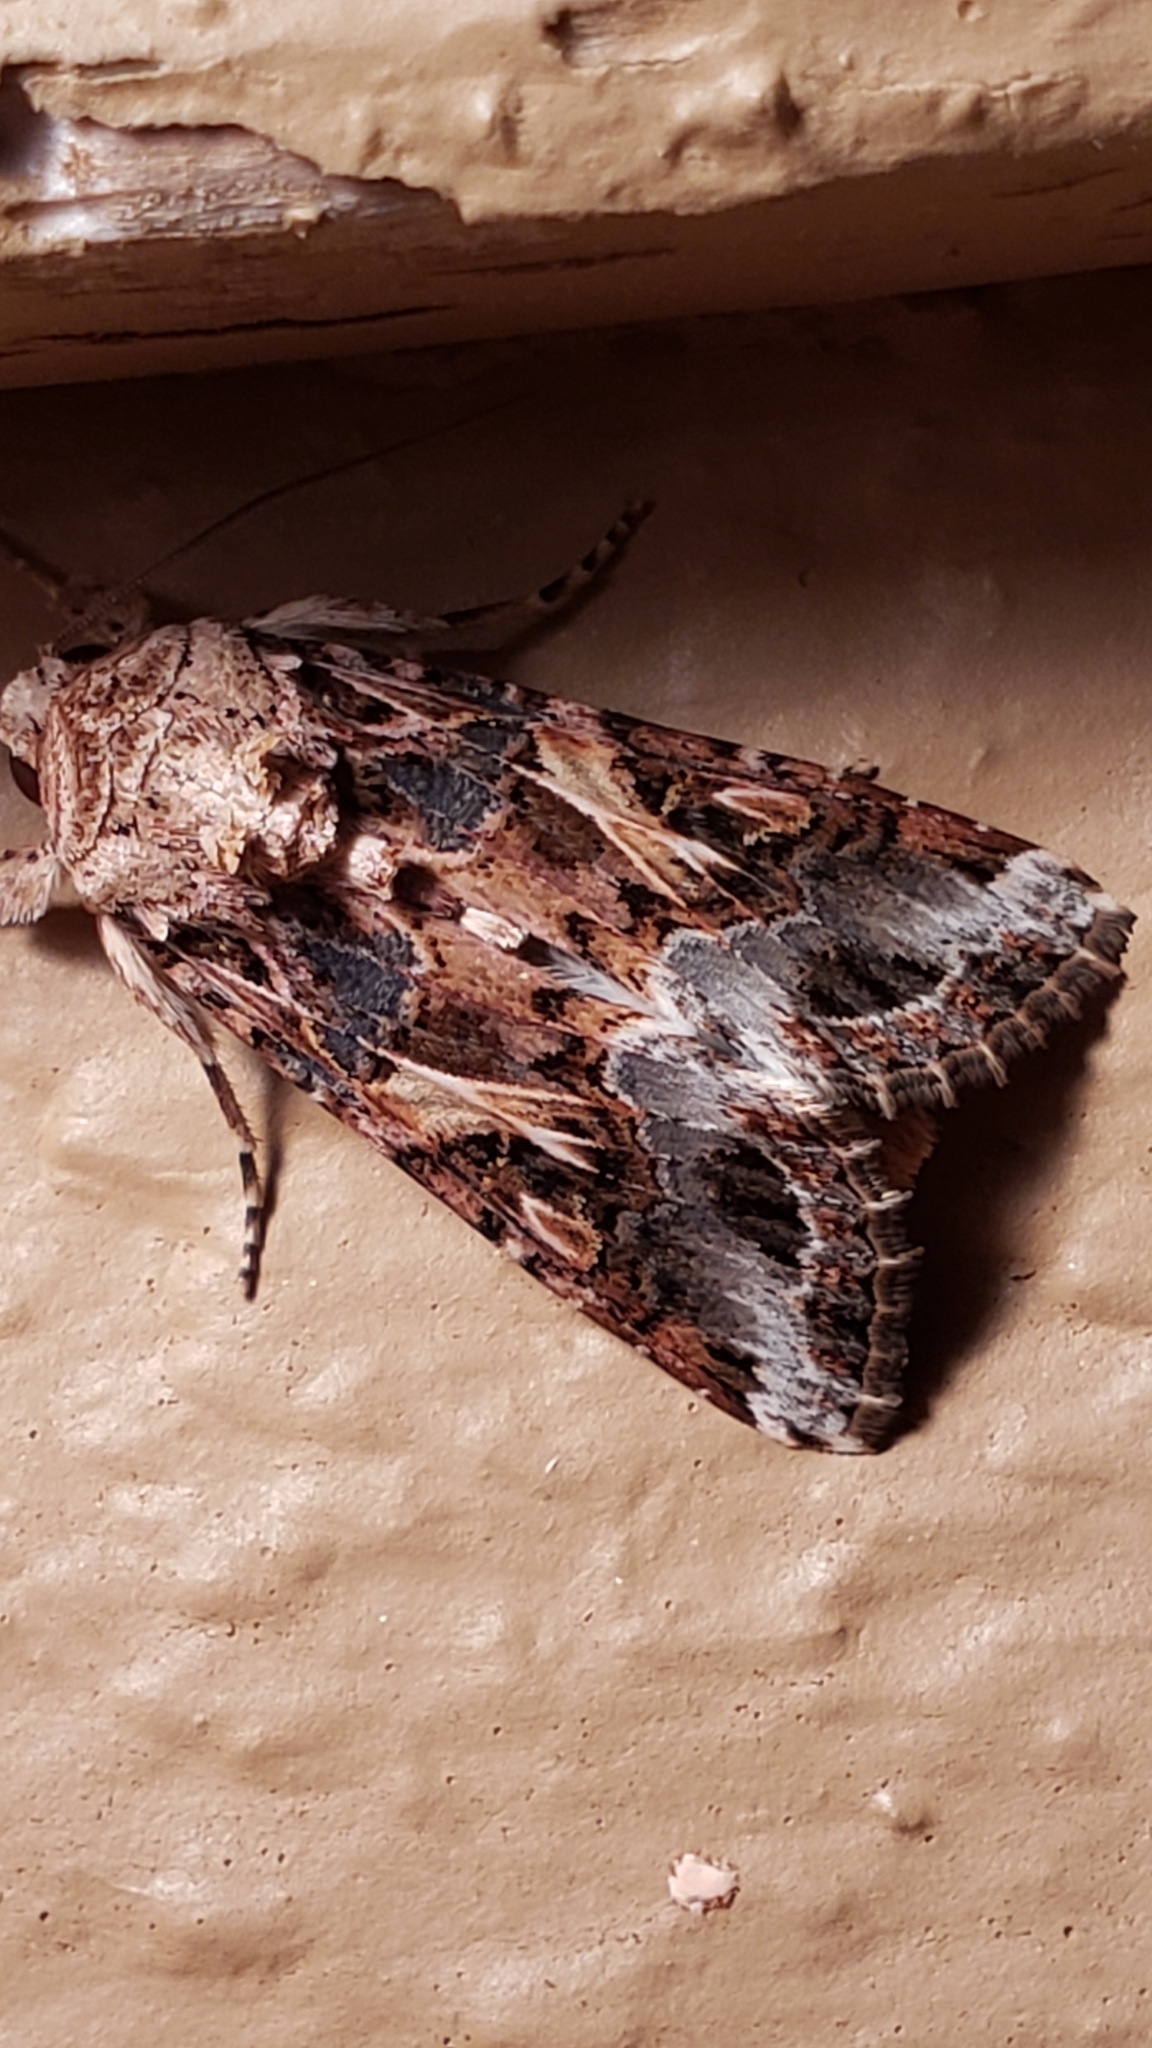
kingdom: Animalia
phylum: Arthropoda
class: Insecta
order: Lepidoptera
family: Noctuidae
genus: Spodoptera
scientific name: Spodoptera ornithogalli
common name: Yellow-striped armyworm
